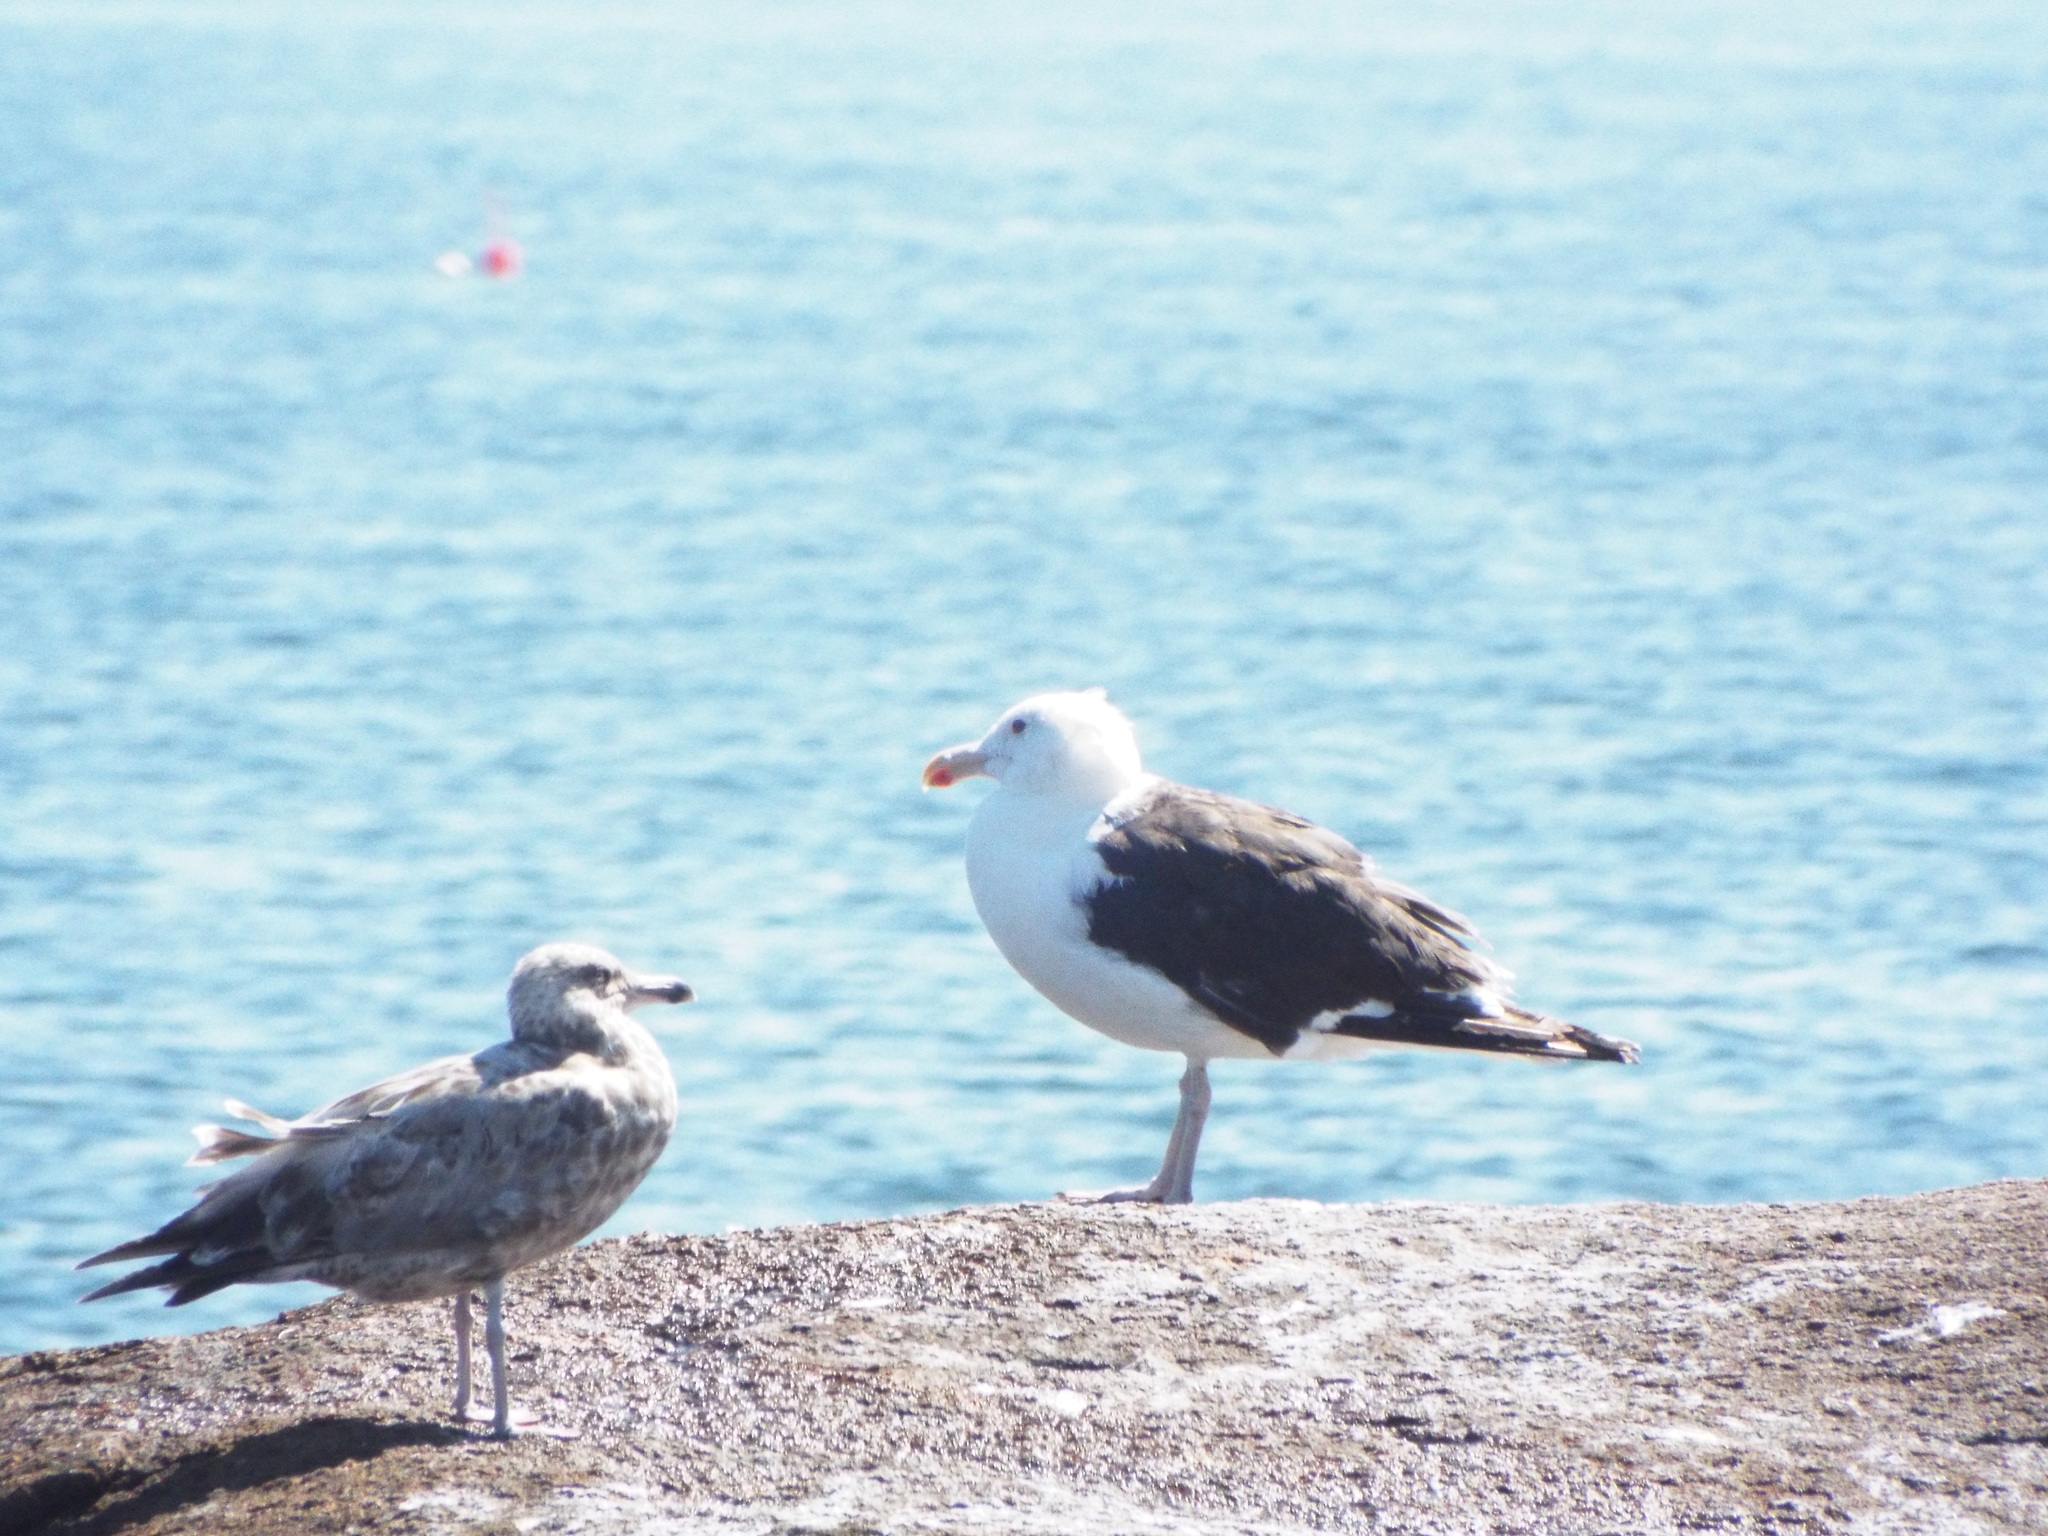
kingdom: Animalia
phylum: Chordata
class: Aves
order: Charadriiformes
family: Laridae
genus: Larus
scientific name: Larus marinus
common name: Great black-backed gull
